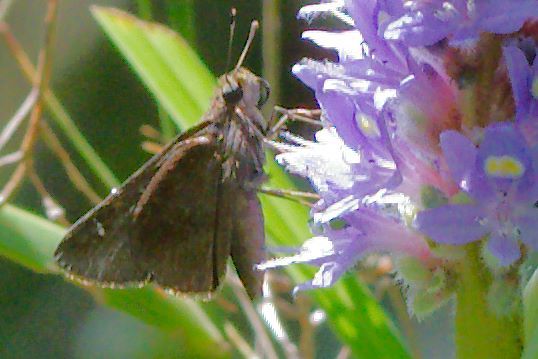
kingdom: Animalia
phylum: Arthropoda
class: Insecta
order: Lepidoptera
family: Hesperiidae
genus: Lerema
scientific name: Lerema accius
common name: Clouded skipper
